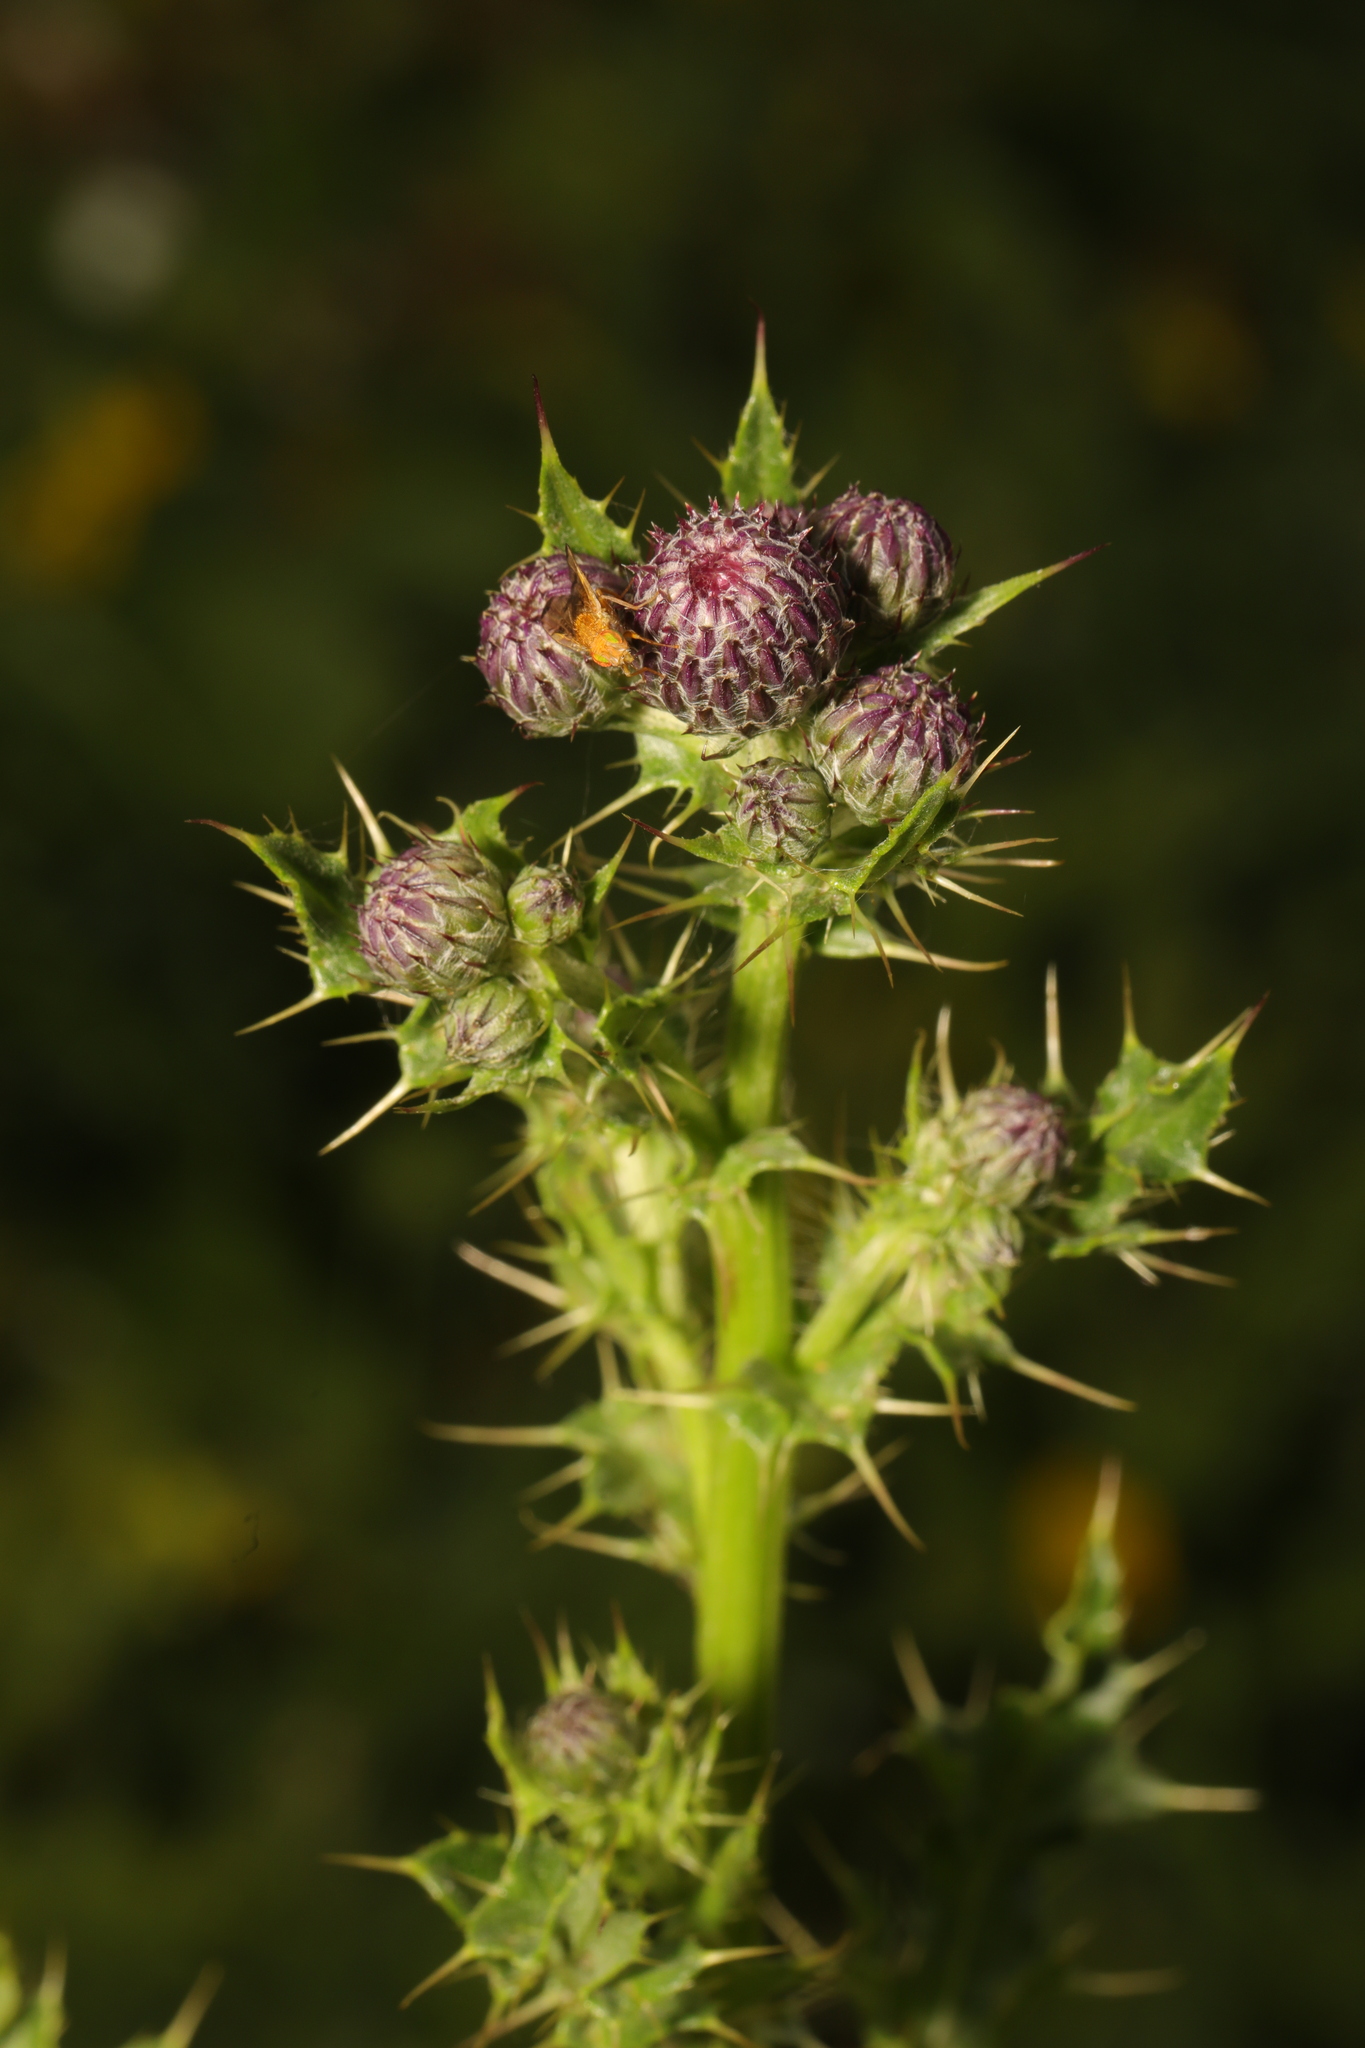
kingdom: Plantae
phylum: Tracheophyta
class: Magnoliopsida
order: Asterales
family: Asteraceae
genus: Cirsium
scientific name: Cirsium arvense
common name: Creeping thistle
